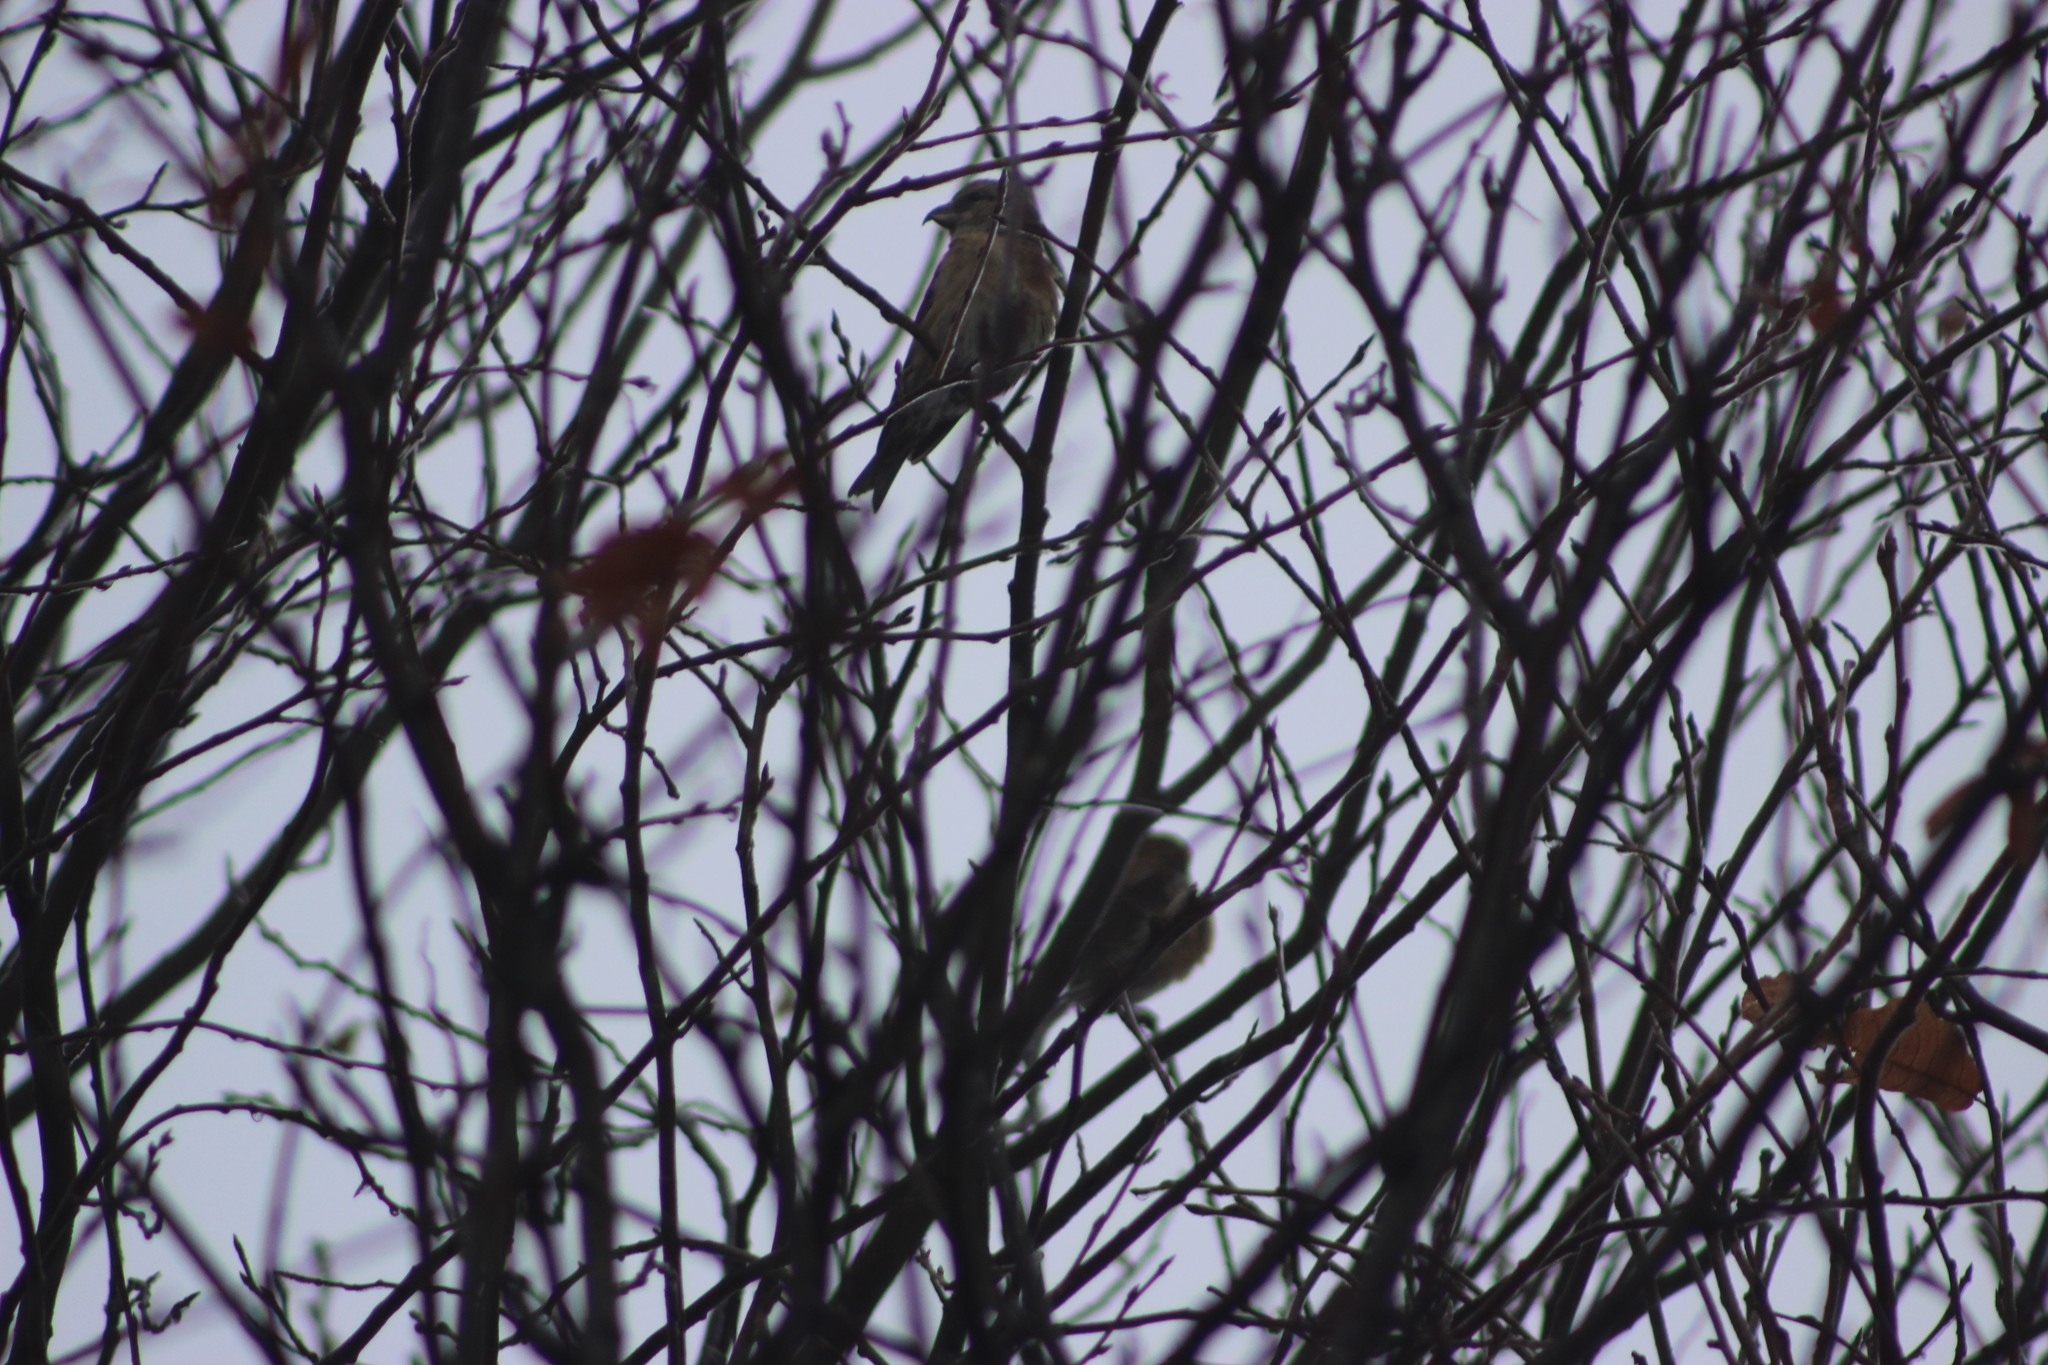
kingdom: Animalia
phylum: Chordata
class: Aves
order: Passeriformes
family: Fringillidae
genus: Loxia
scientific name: Loxia curvirostra
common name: Red crossbill
